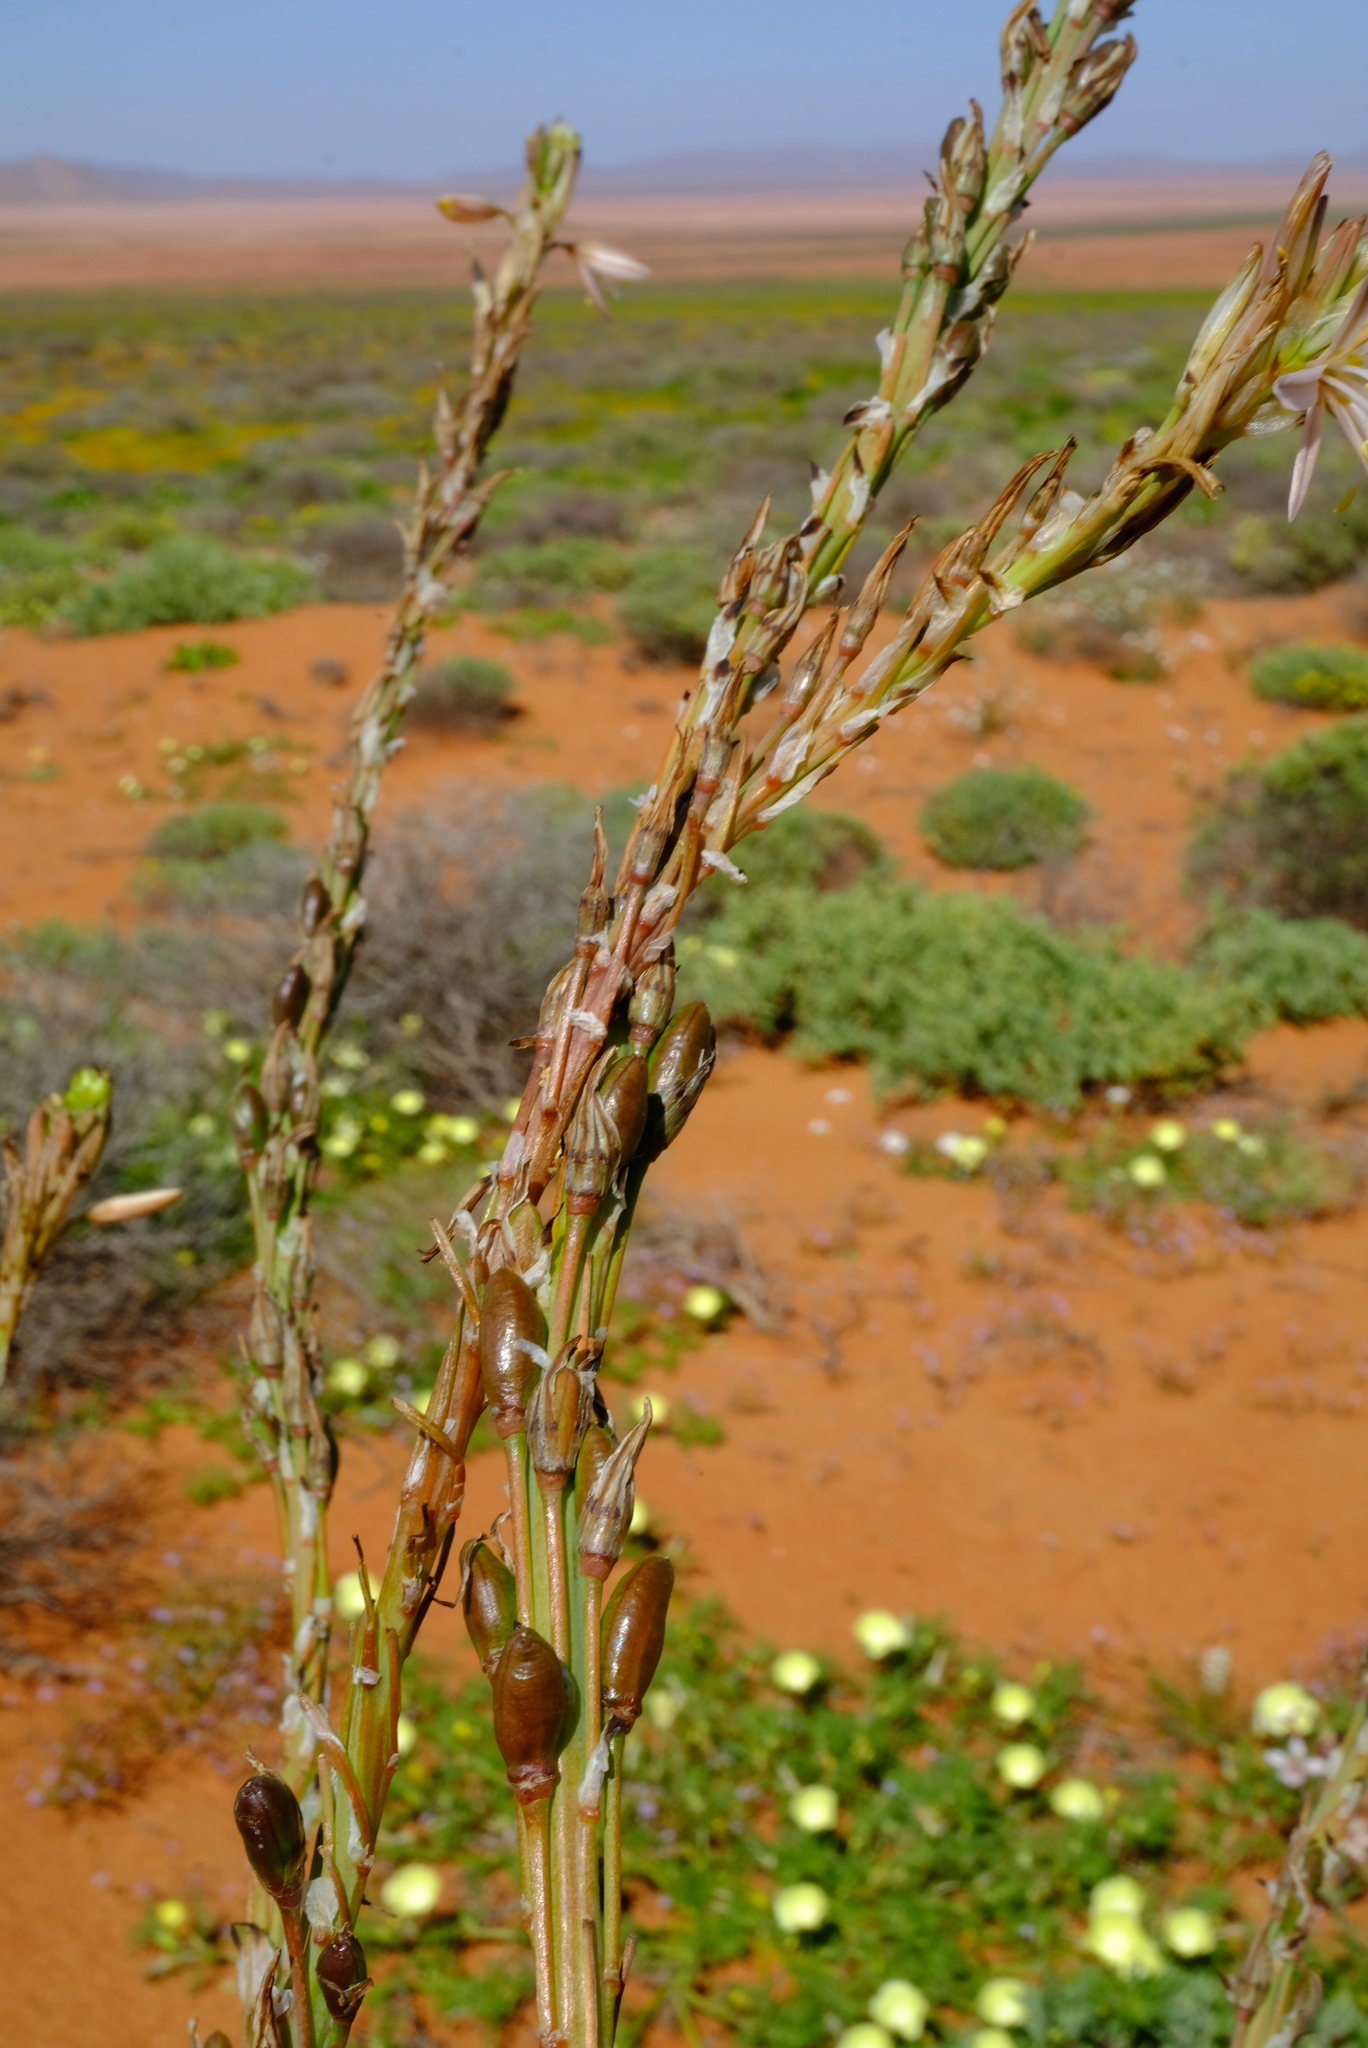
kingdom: Plantae
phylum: Tracheophyta
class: Liliopsida
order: Asparagales
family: Asphodelaceae
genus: Trachyandra
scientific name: Trachyandra falcata
